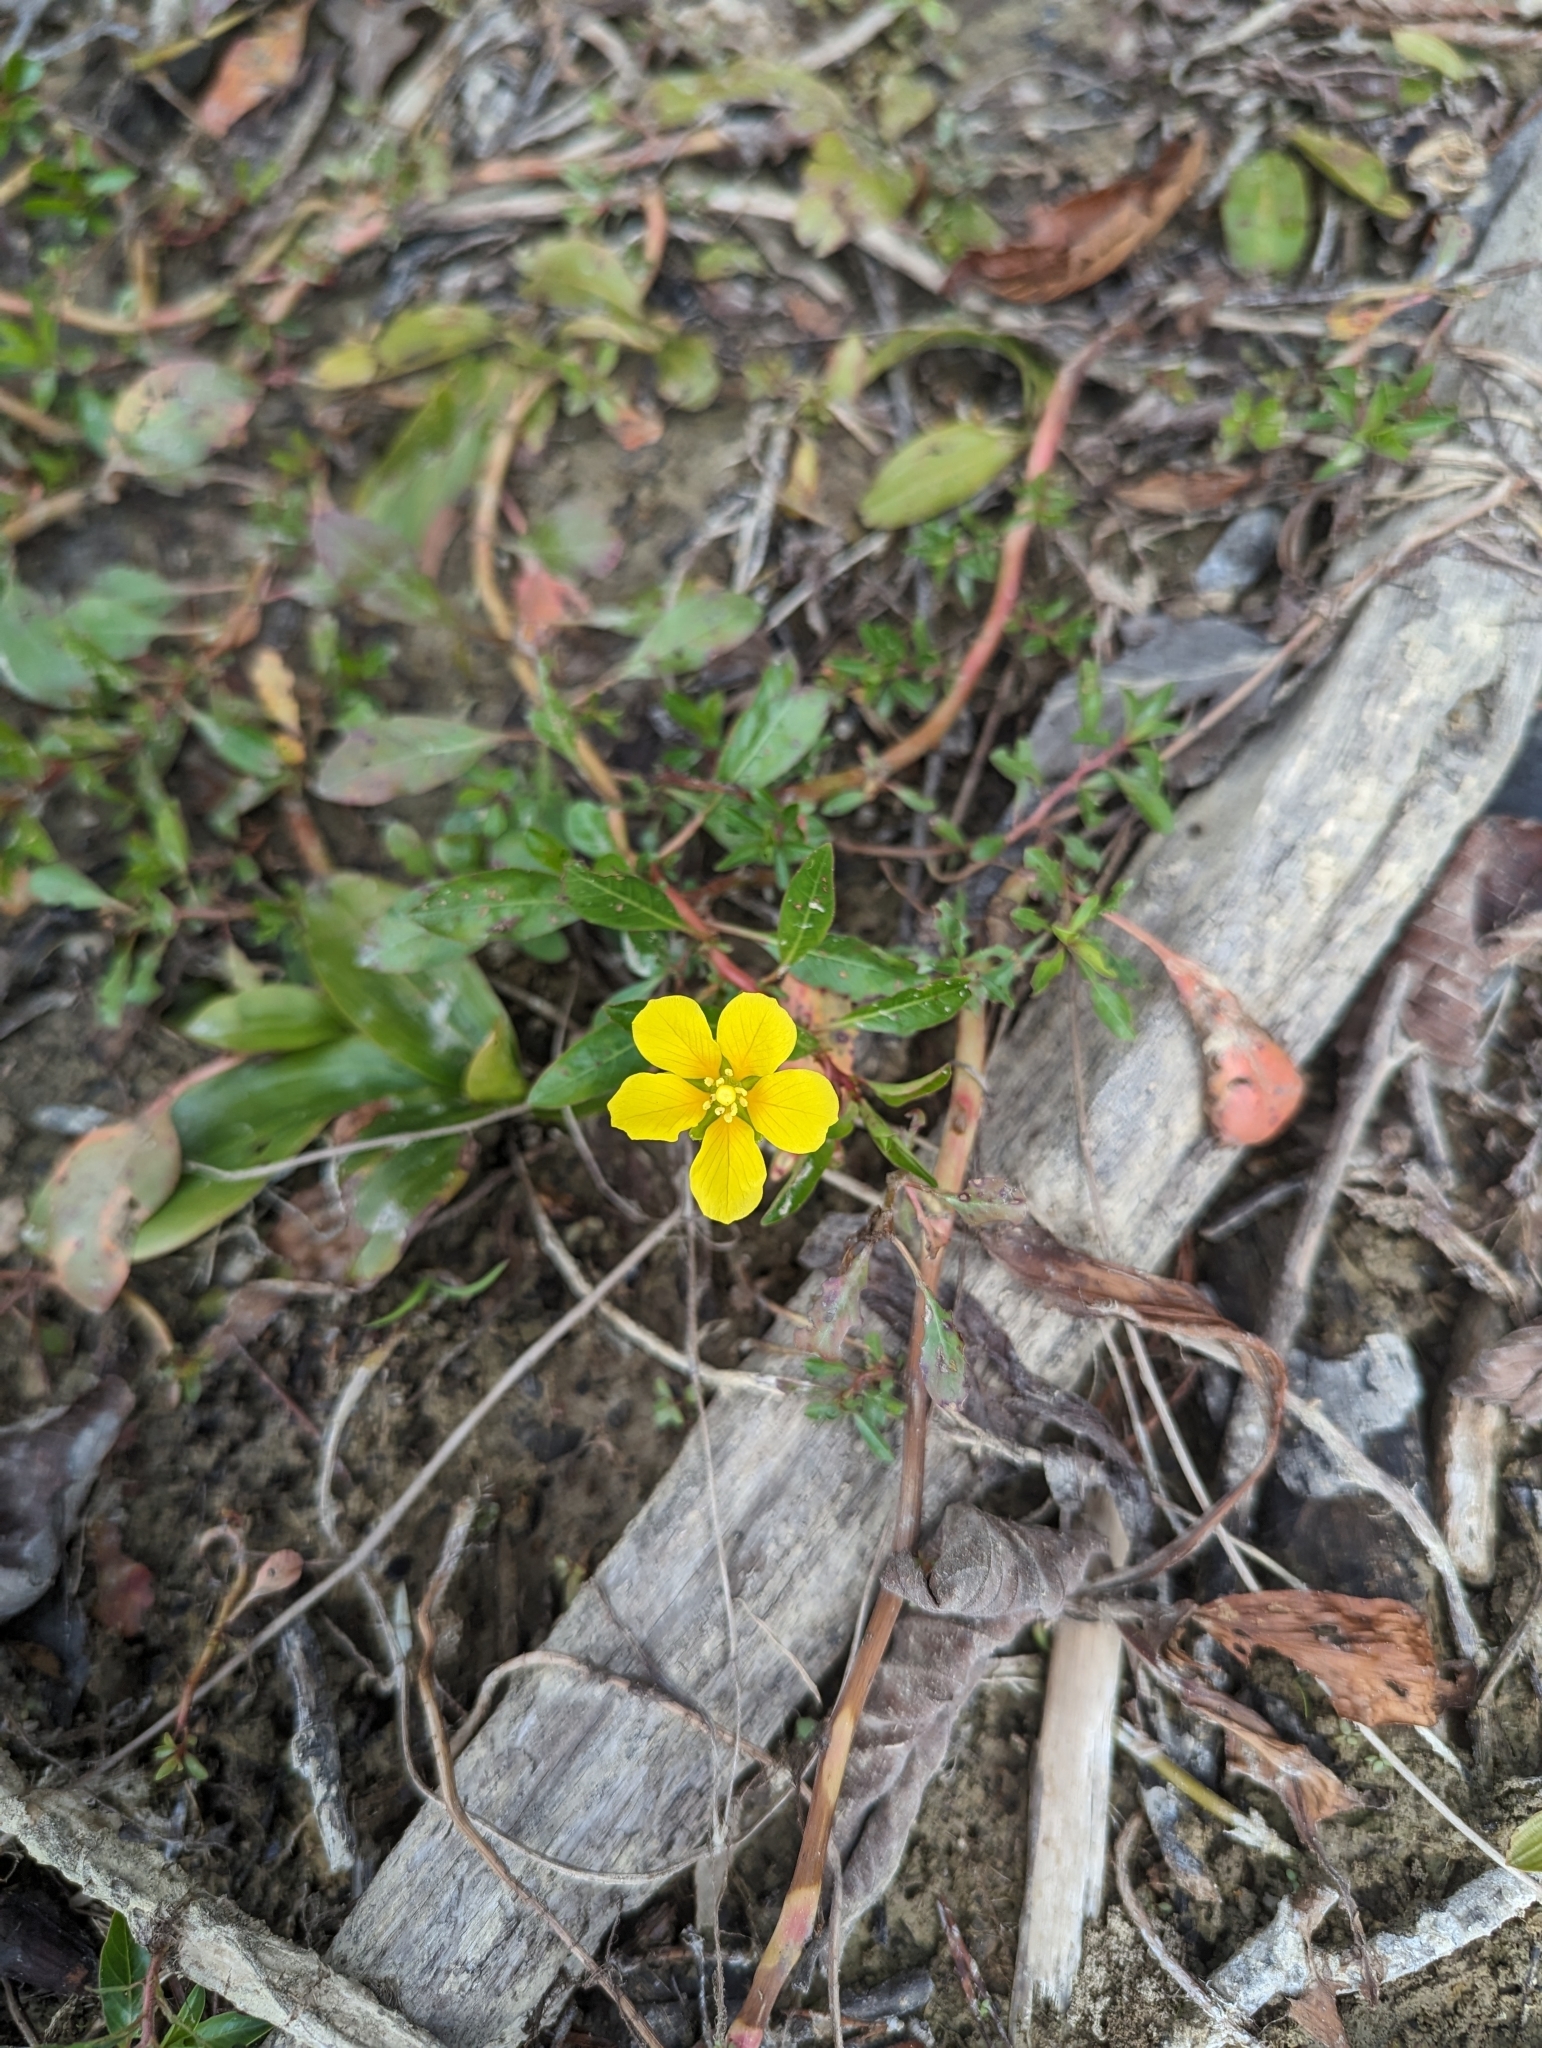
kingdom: Plantae
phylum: Tracheophyta
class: Magnoliopsida
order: Myrtales
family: Onagraceae
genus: Ludwigia
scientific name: Ludwigia peploides
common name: Floating primrose-willow
